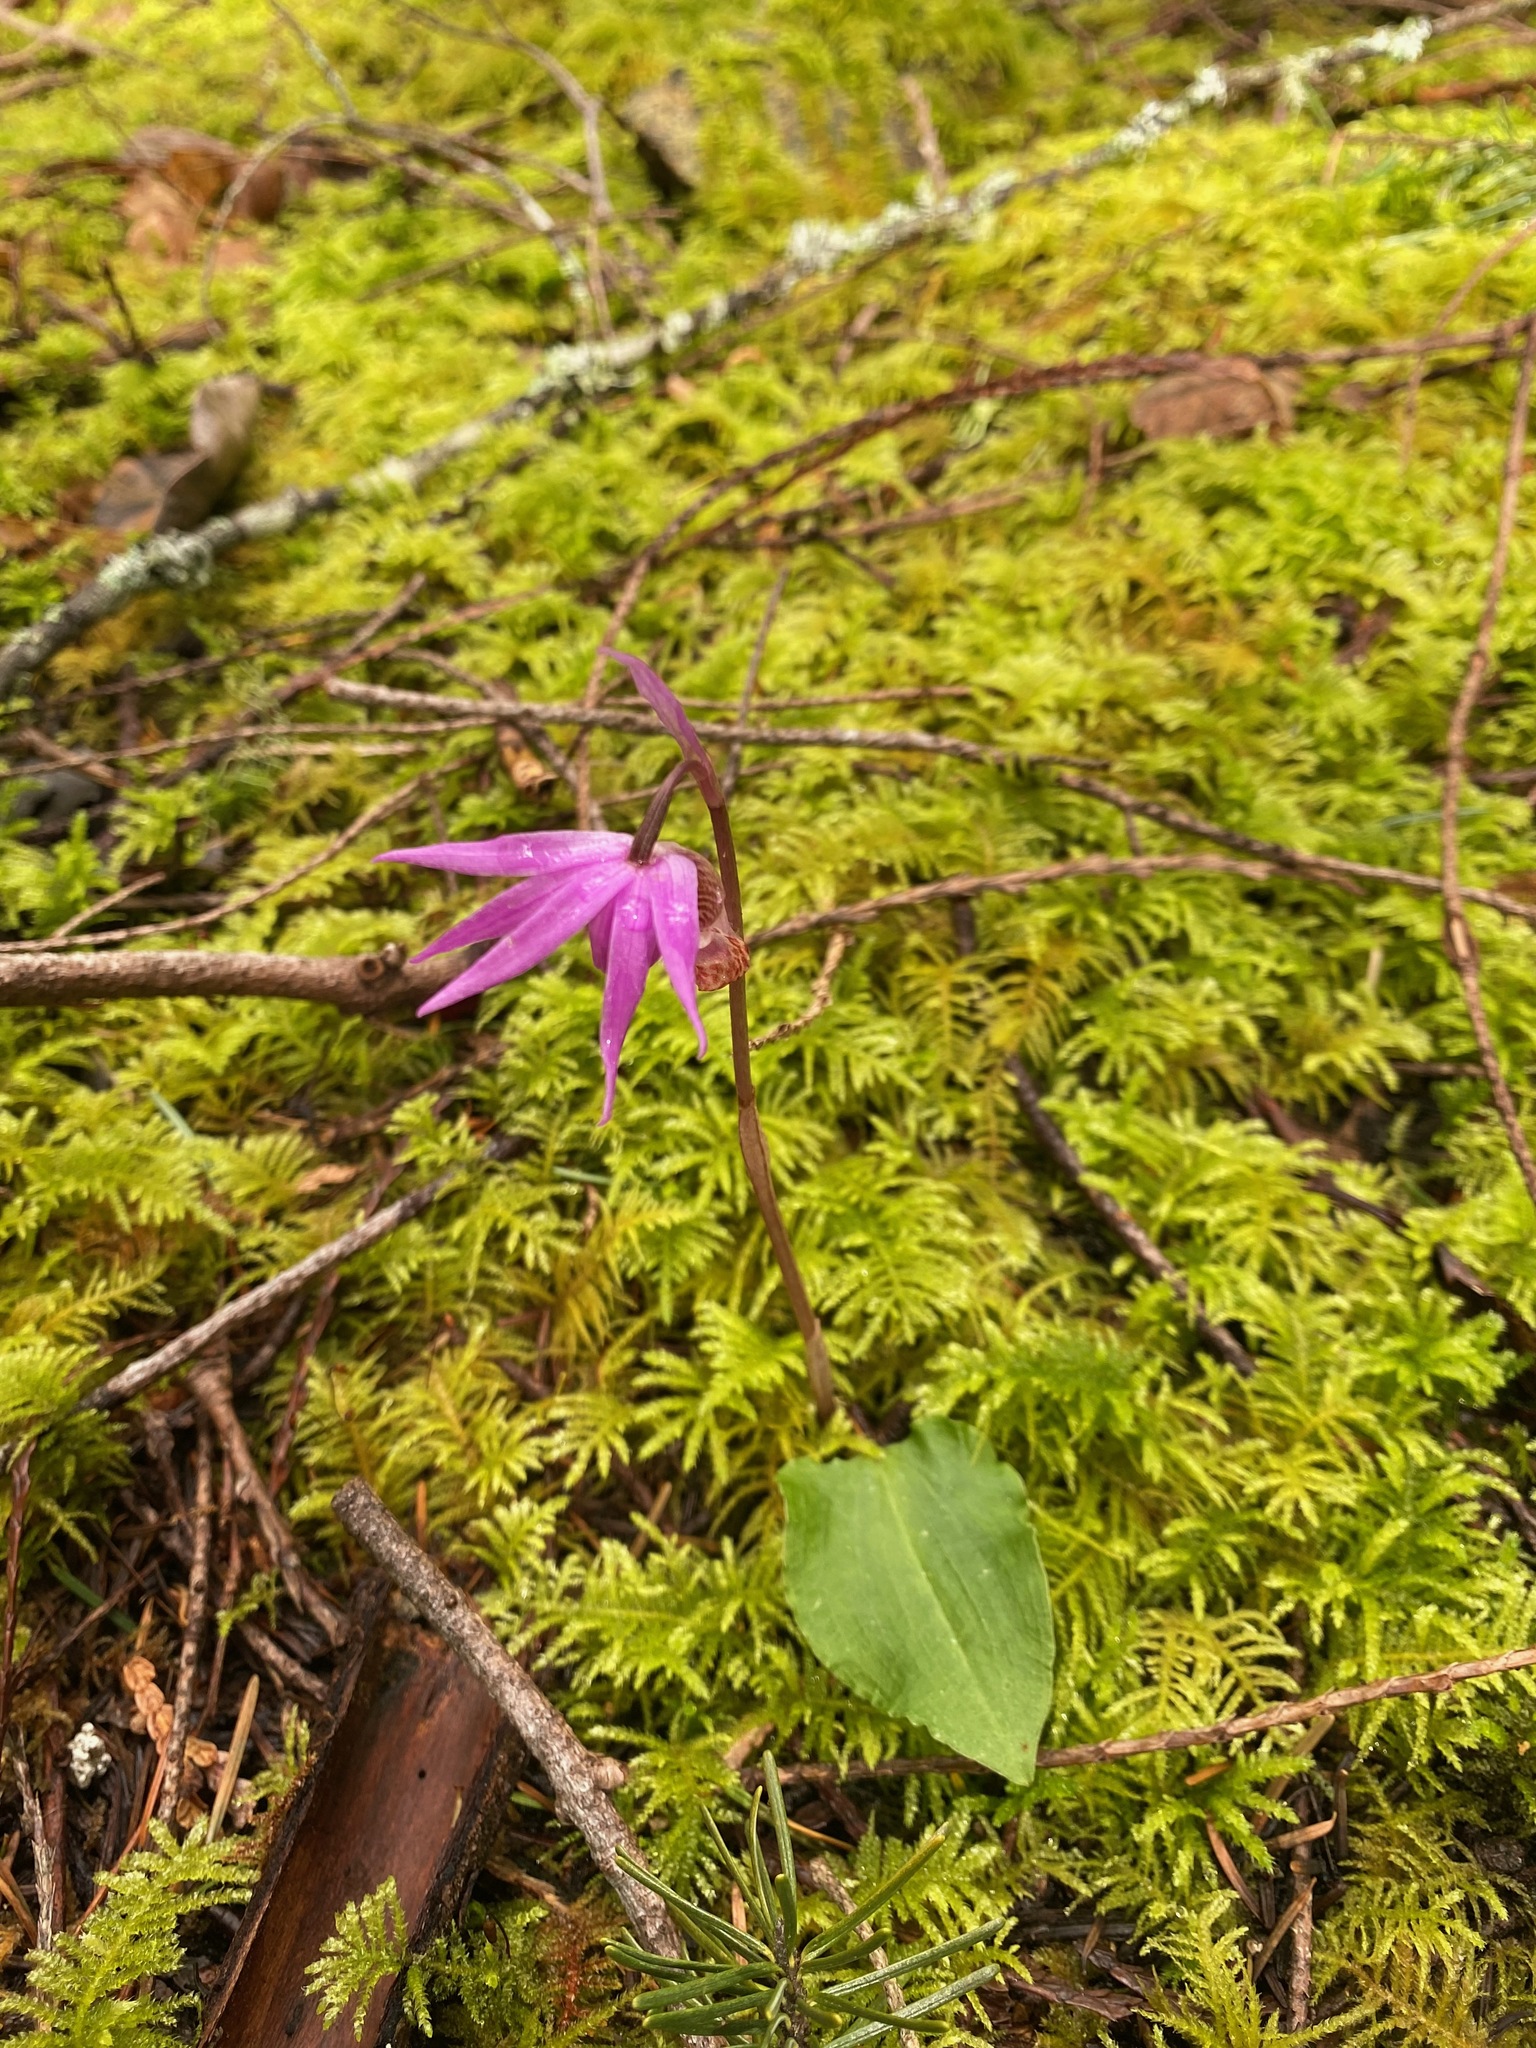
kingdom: Plantae
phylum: Tracheophyta
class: Liliopsida
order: Asparagales
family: Orchidaceae
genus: Calypso
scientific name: Calypso bulbosa
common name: Calypso
